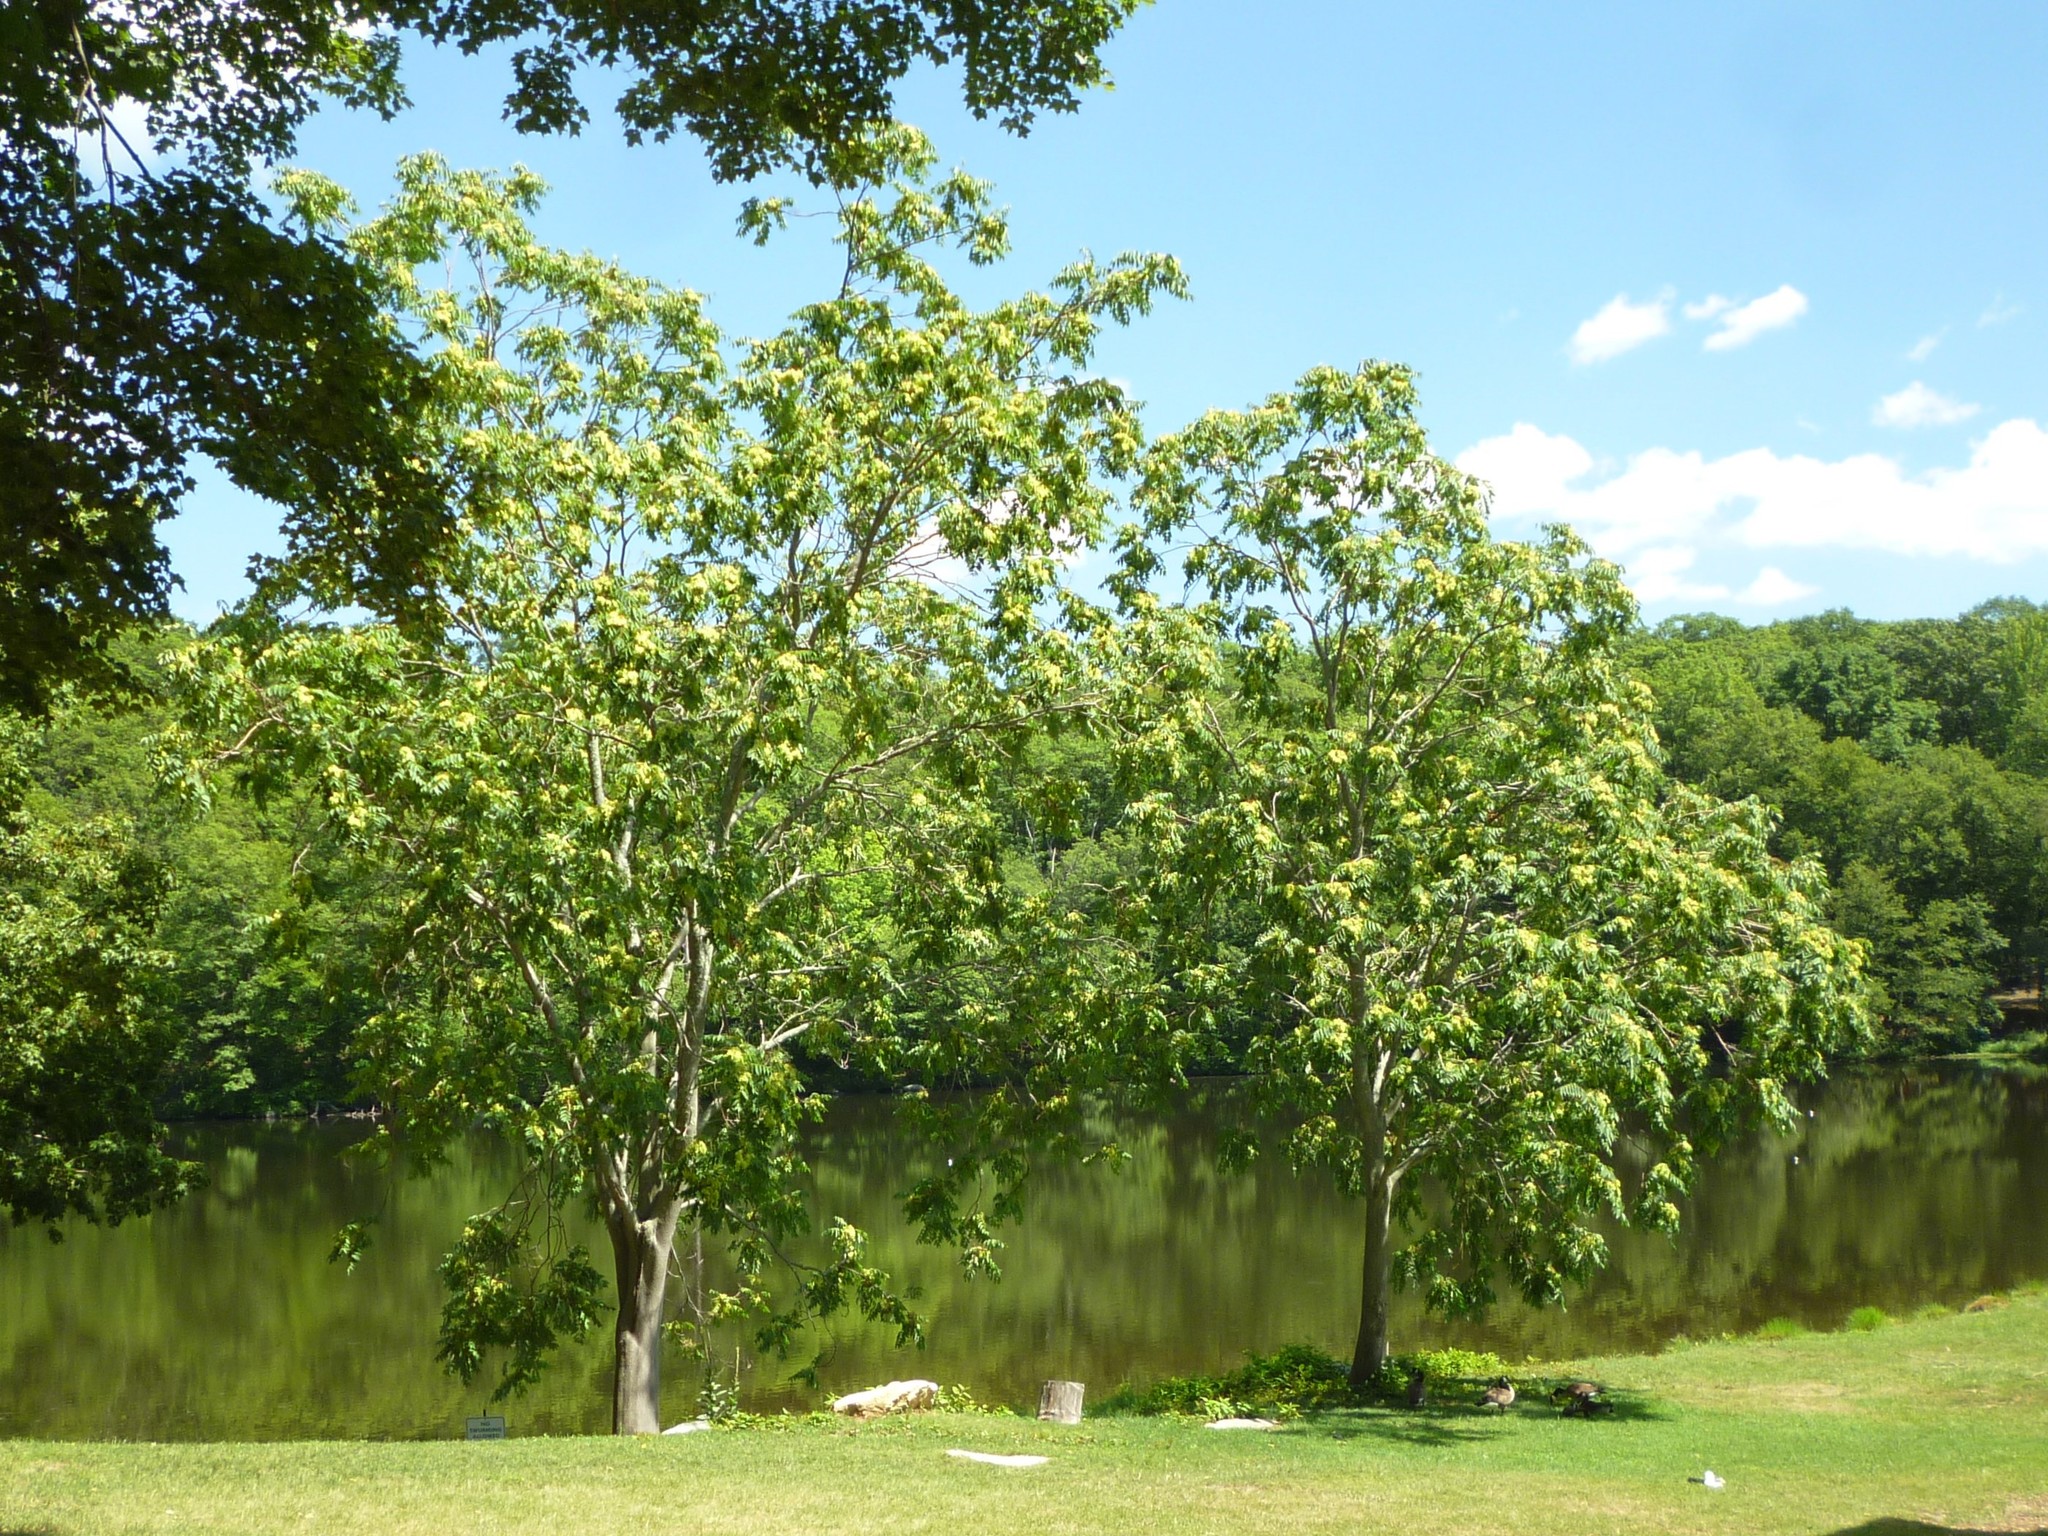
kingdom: Plantae
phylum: Tracheophyta
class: Magnoliopsida
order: Sapindales
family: Simaroubaceae
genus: Ailanthus
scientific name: Ailanthus altissima
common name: Tree-of-heaven
